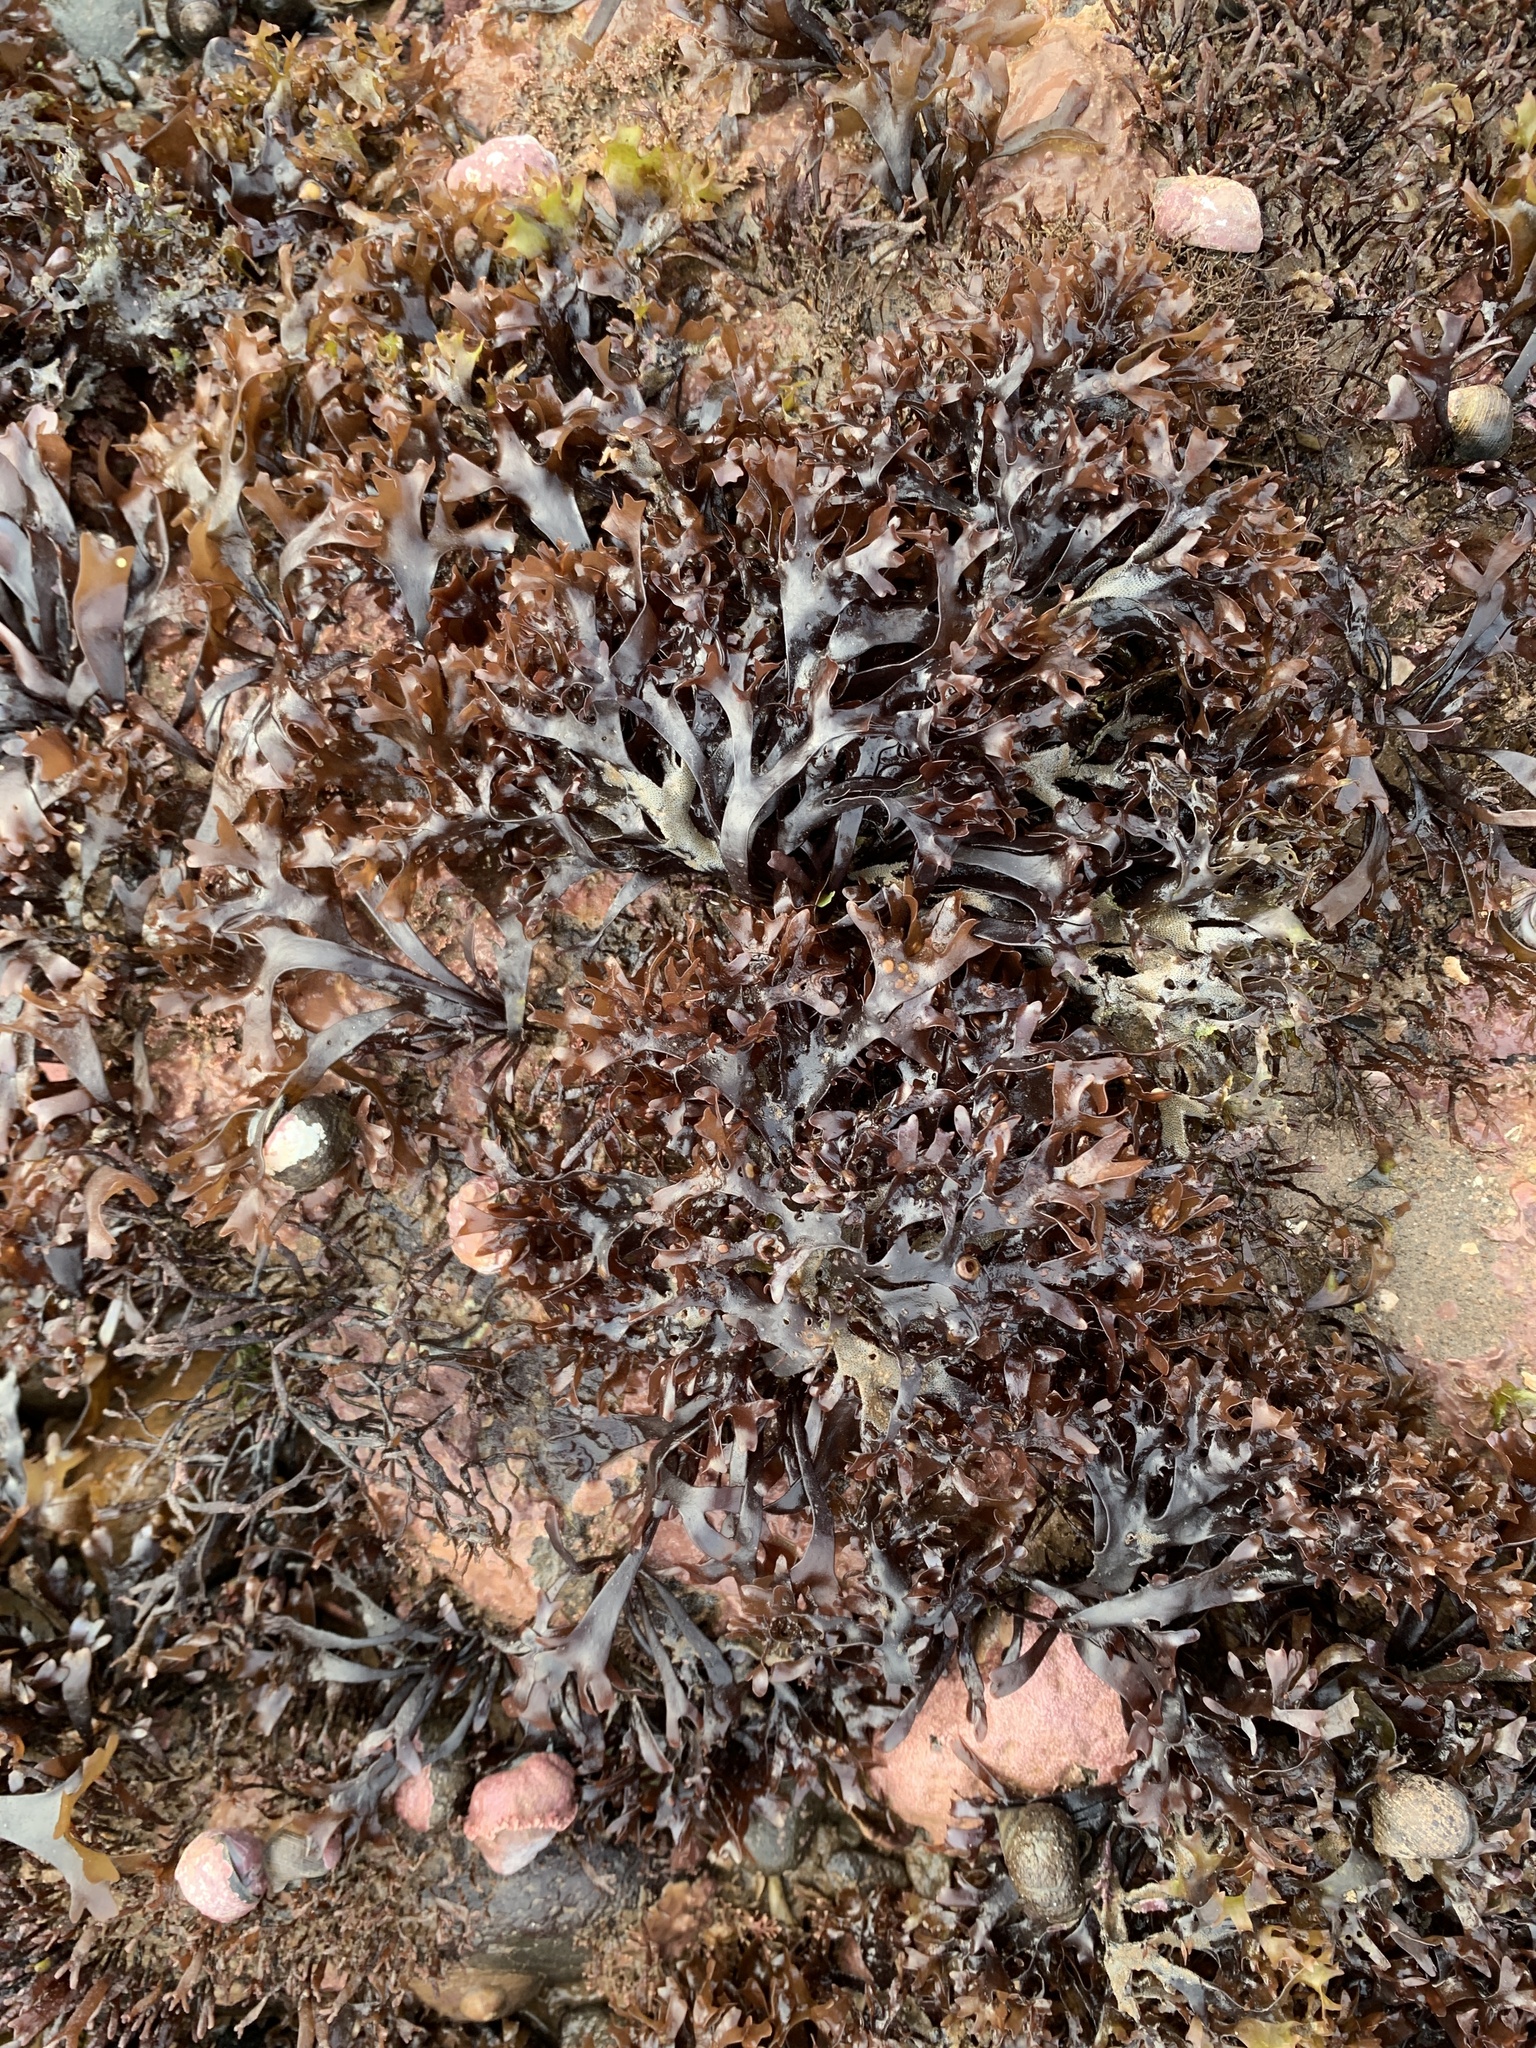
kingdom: Plantae
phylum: Rhodophyta
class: Florideophyceae
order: Gigartinales
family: Gigartinaceae
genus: Chondrus
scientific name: Chondrus crispus
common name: Carrageen
